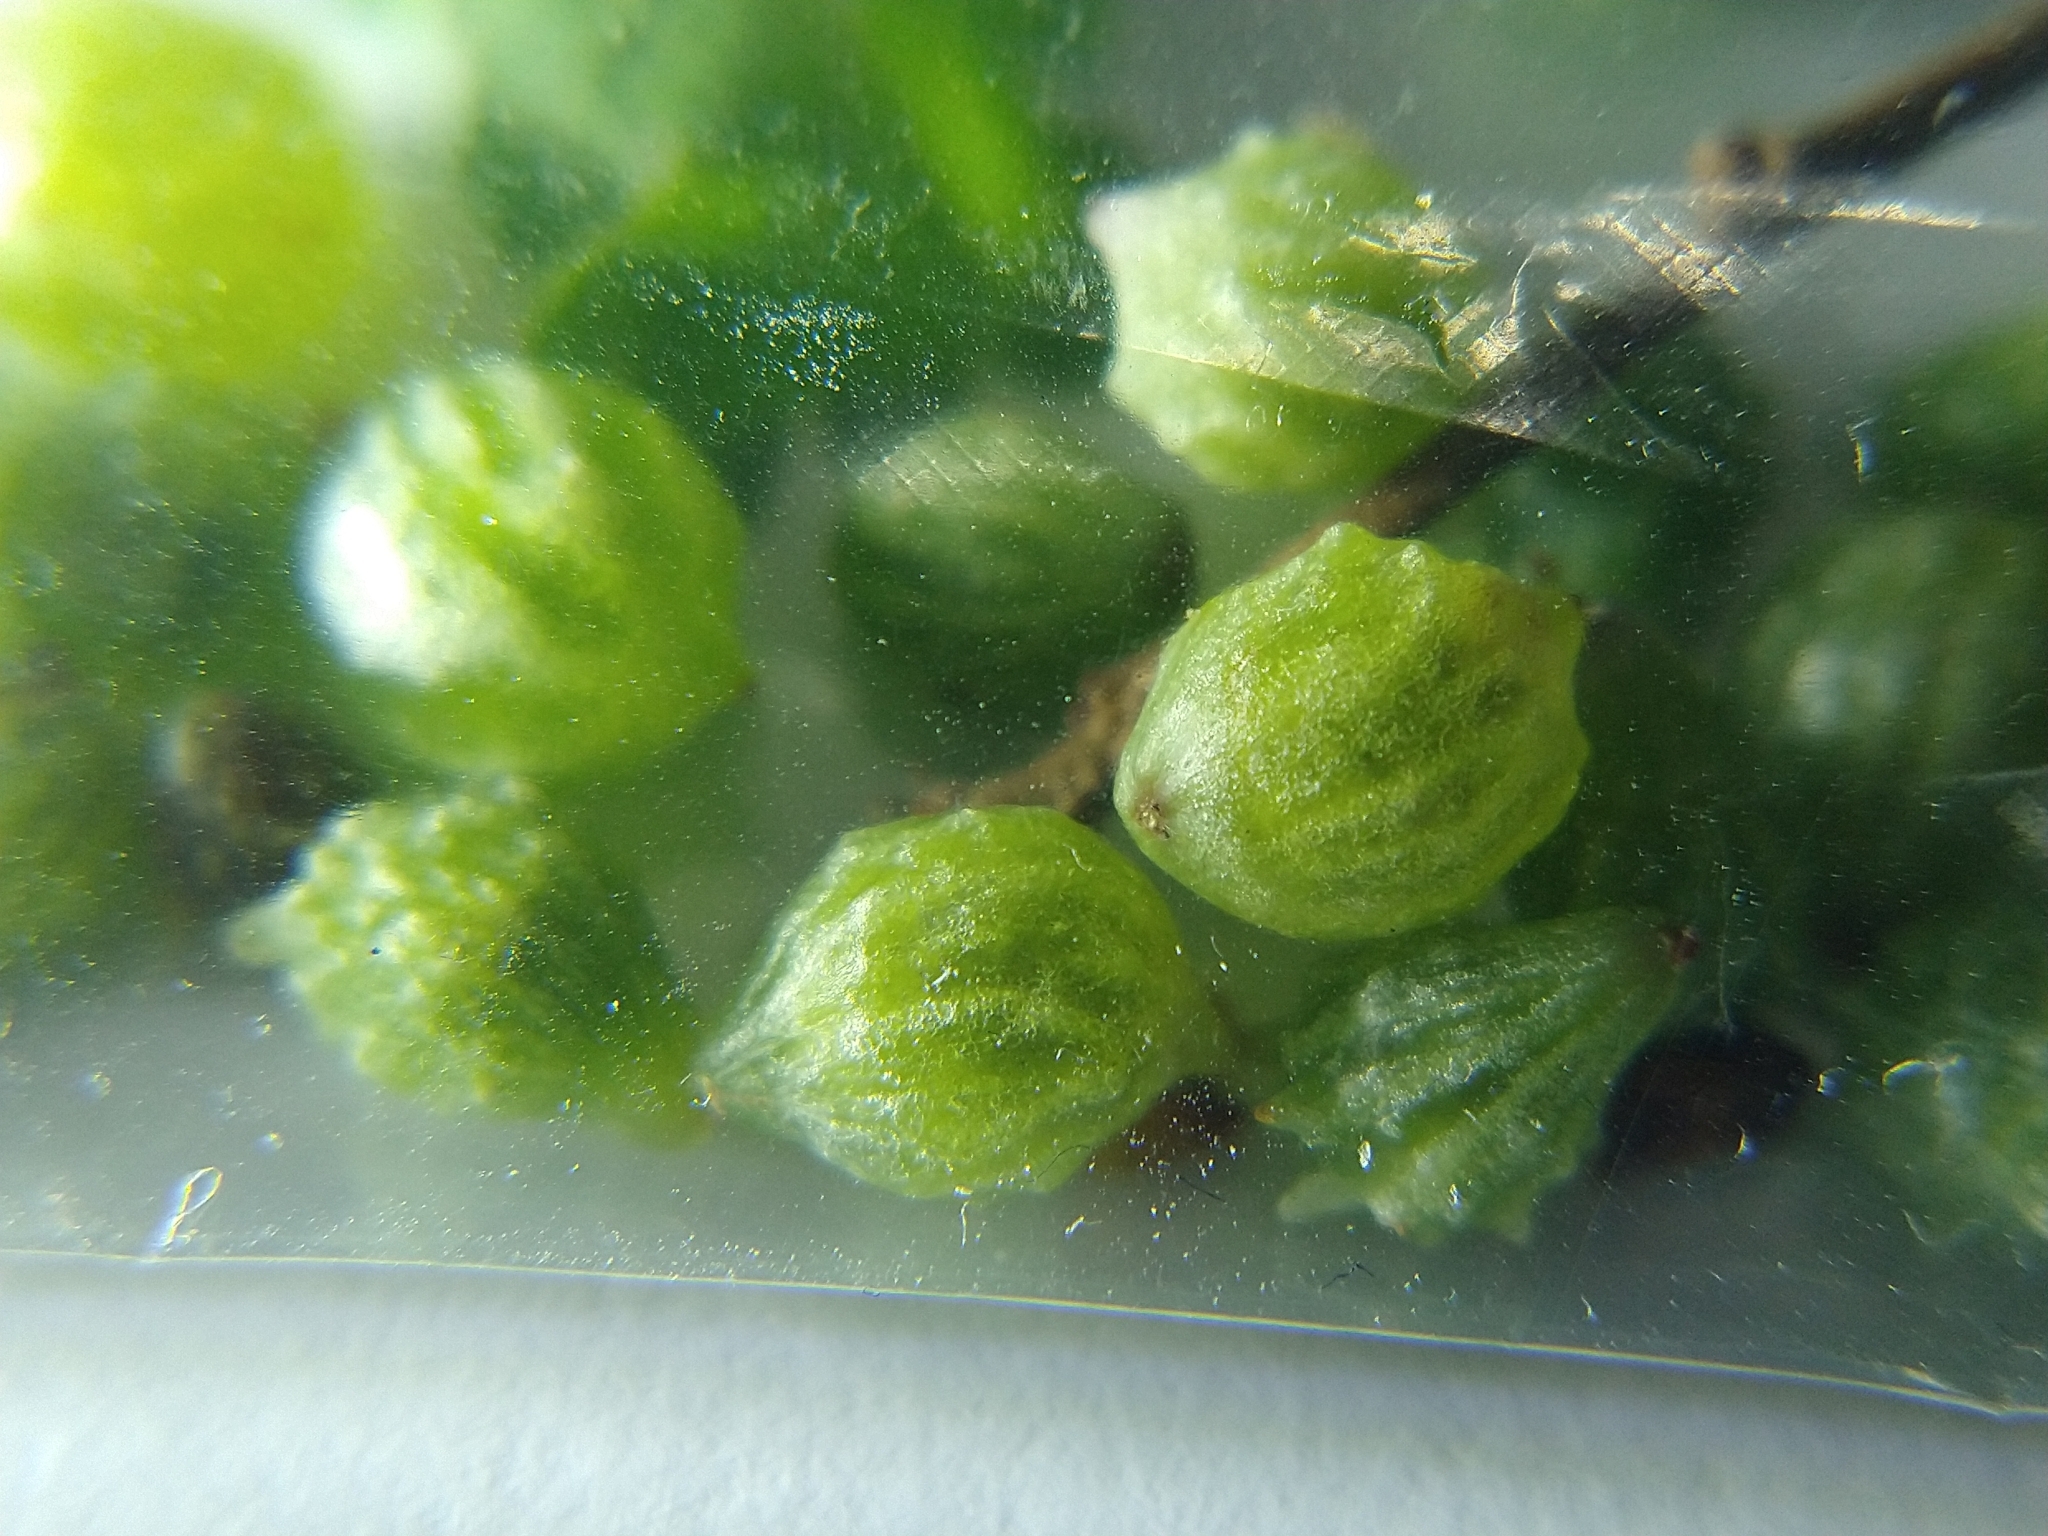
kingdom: Animalia
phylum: Arthropoda
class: Insecta
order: Hymenoptera
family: Cynipidae
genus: Cynips
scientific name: Cynips douglasi
